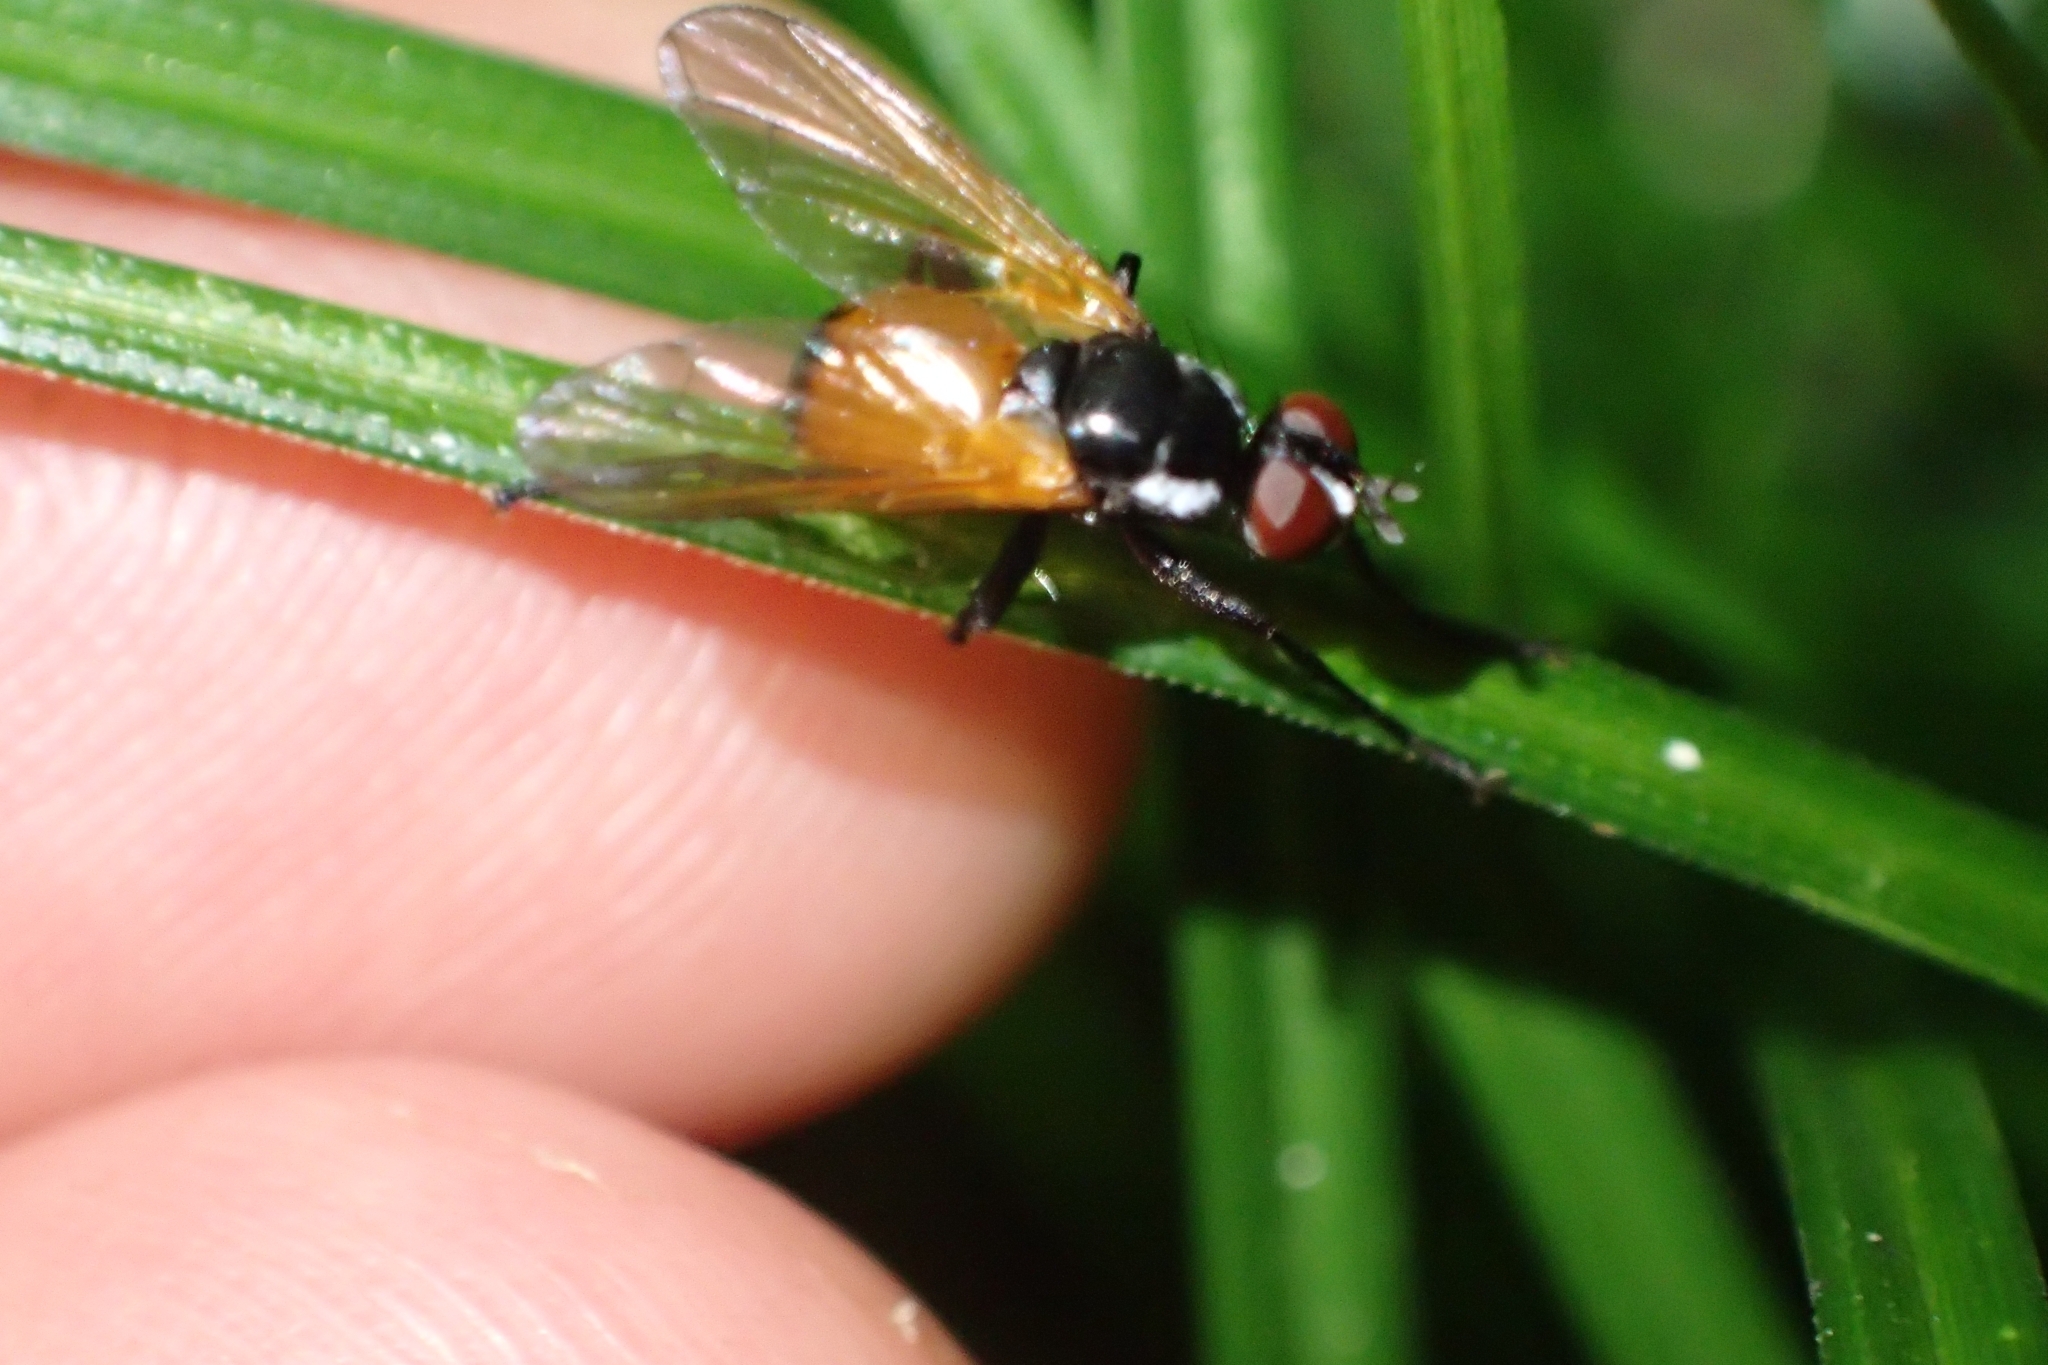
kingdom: Animalia
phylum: Arthropoda
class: Insecta
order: Diptera
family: Tachinidae
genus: Huttonobesseria
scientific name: Huttonobesseria verecunda
